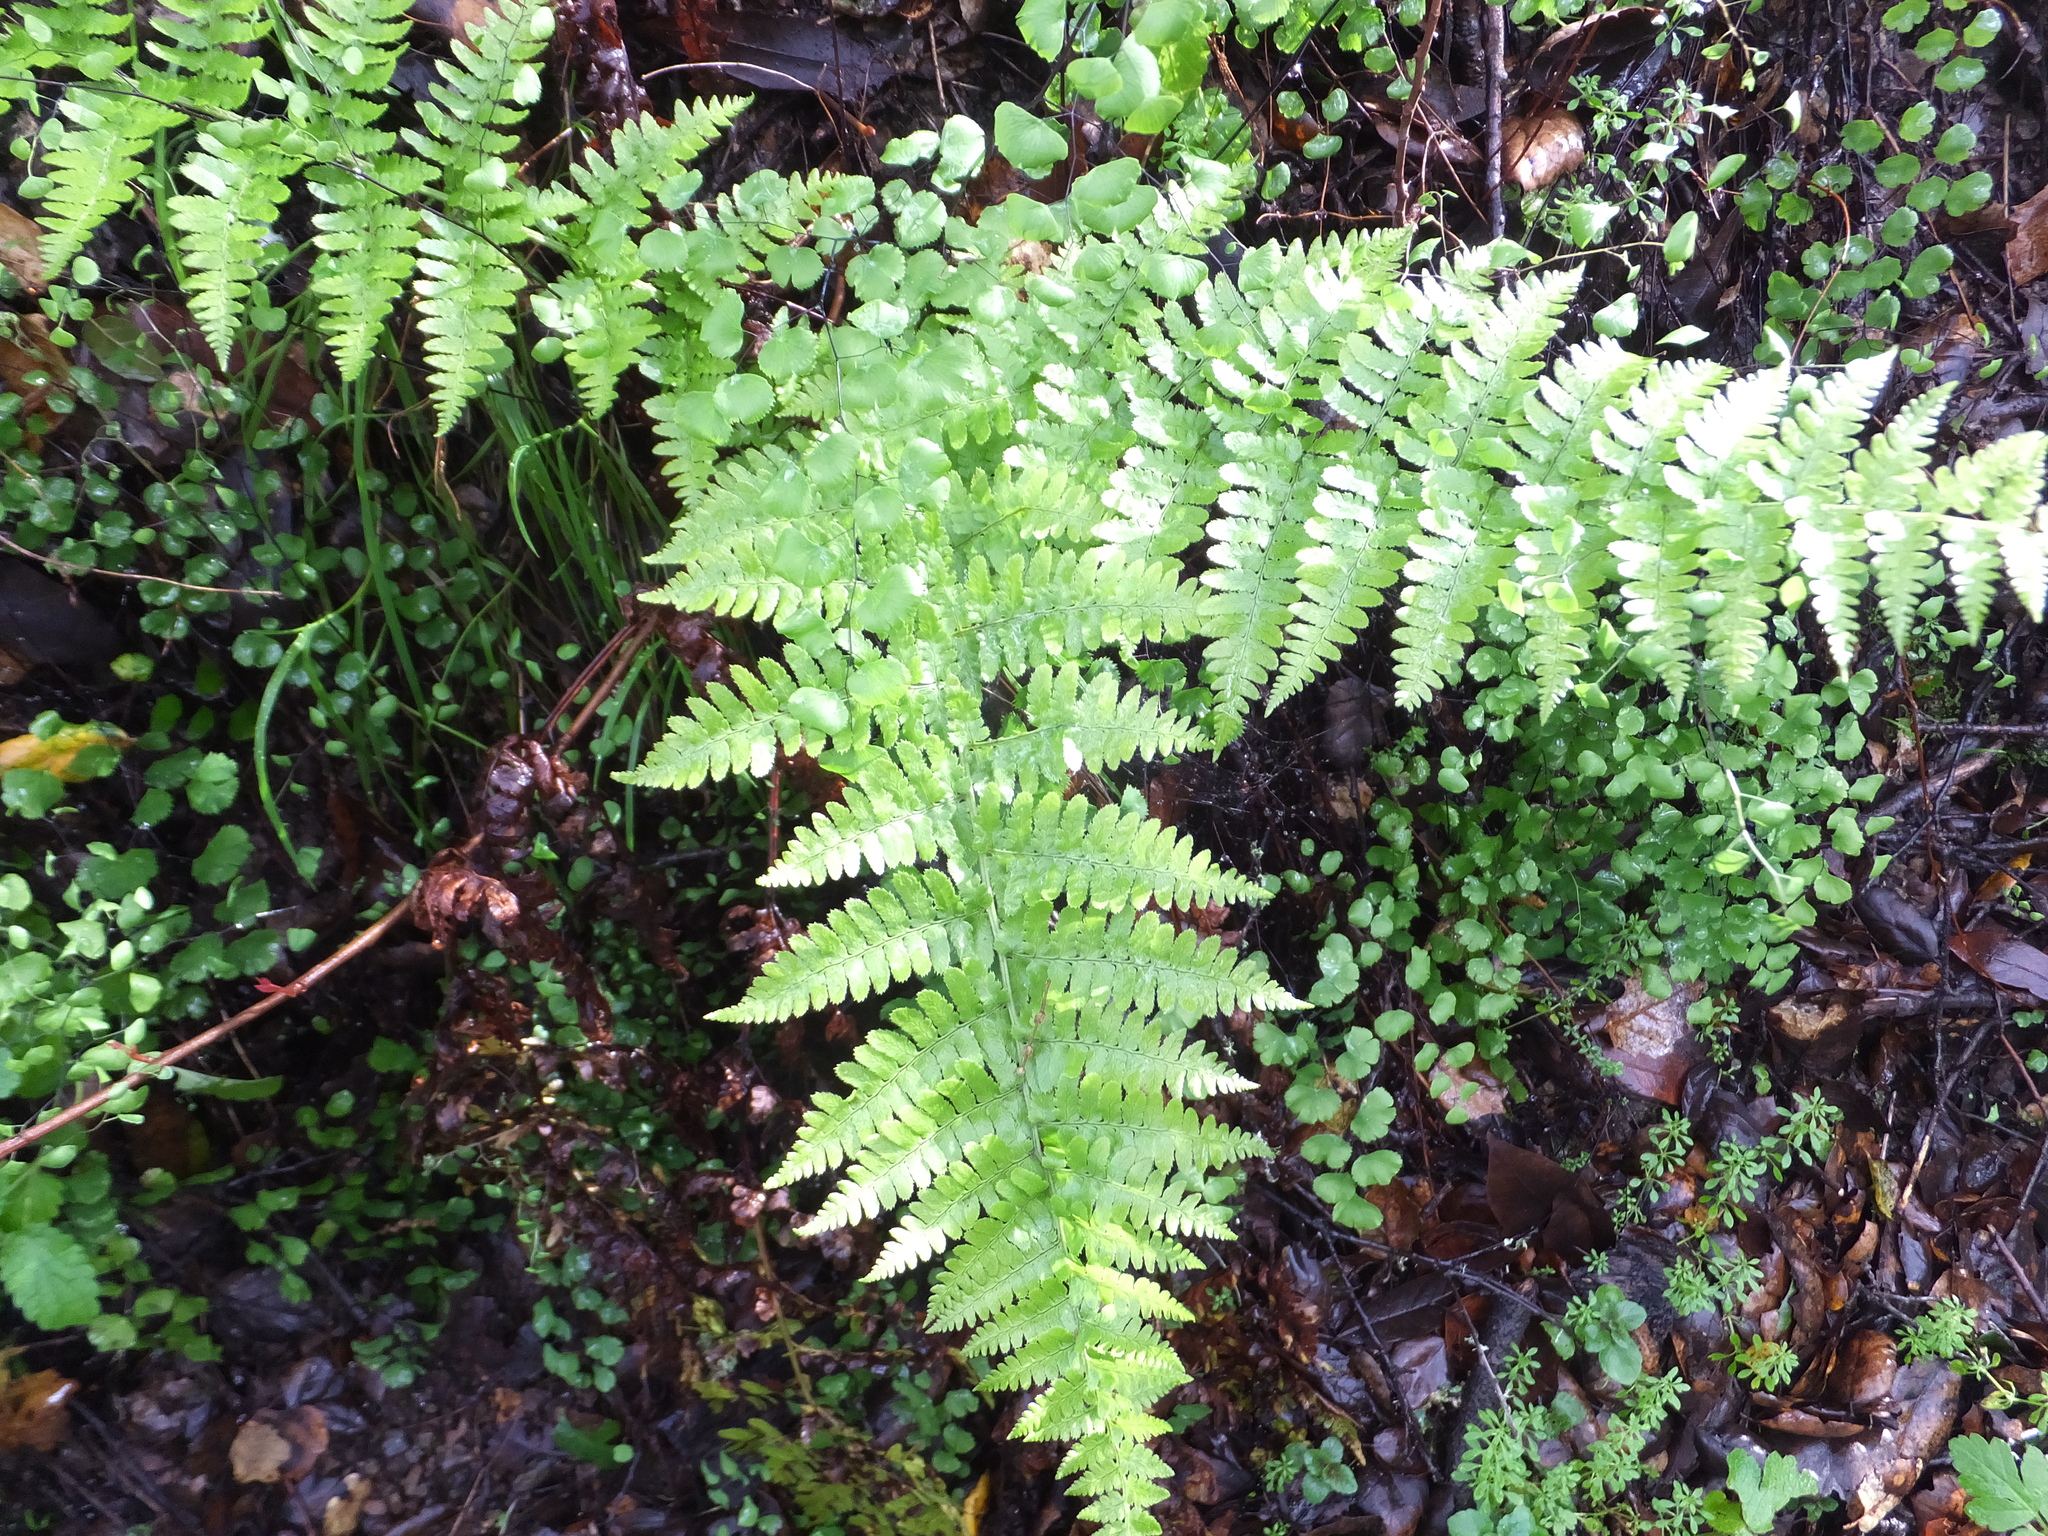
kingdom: Plantae
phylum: Tracheophyta
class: Polypodiopsida
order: Polypodiales
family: Dryopteridaceae
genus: Dryopteris
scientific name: Dryopteris arguta
